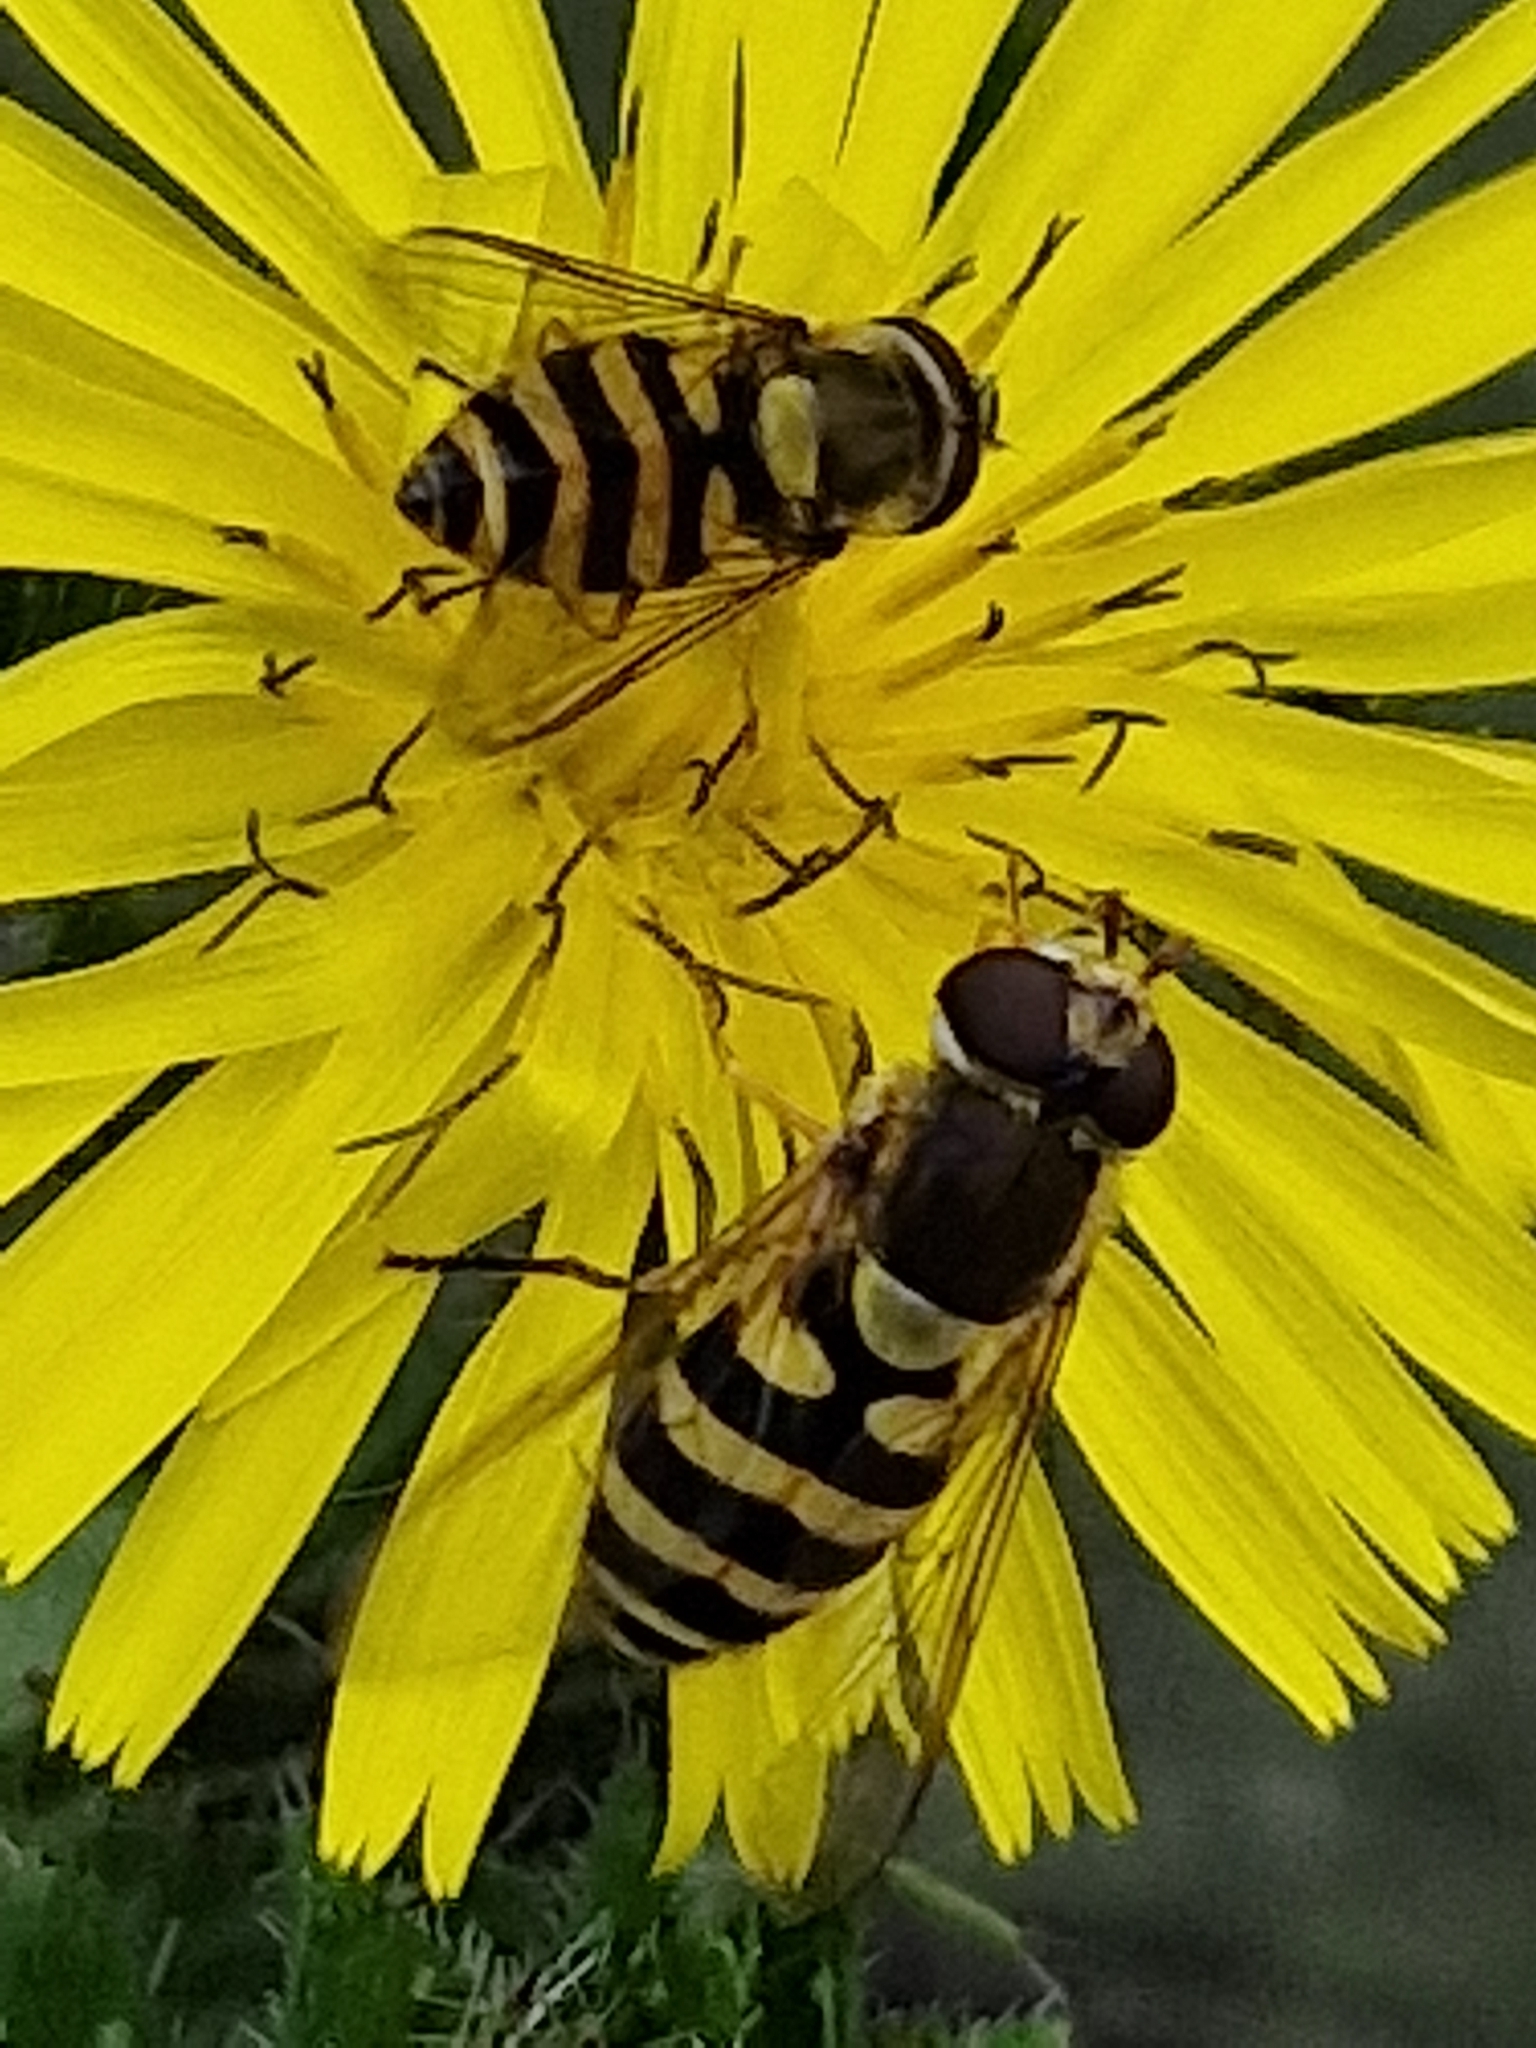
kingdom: Animalia
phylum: Arthropoda
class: Insecta
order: Diptera
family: Syrphidae
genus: Syrphus
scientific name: Syrphus
